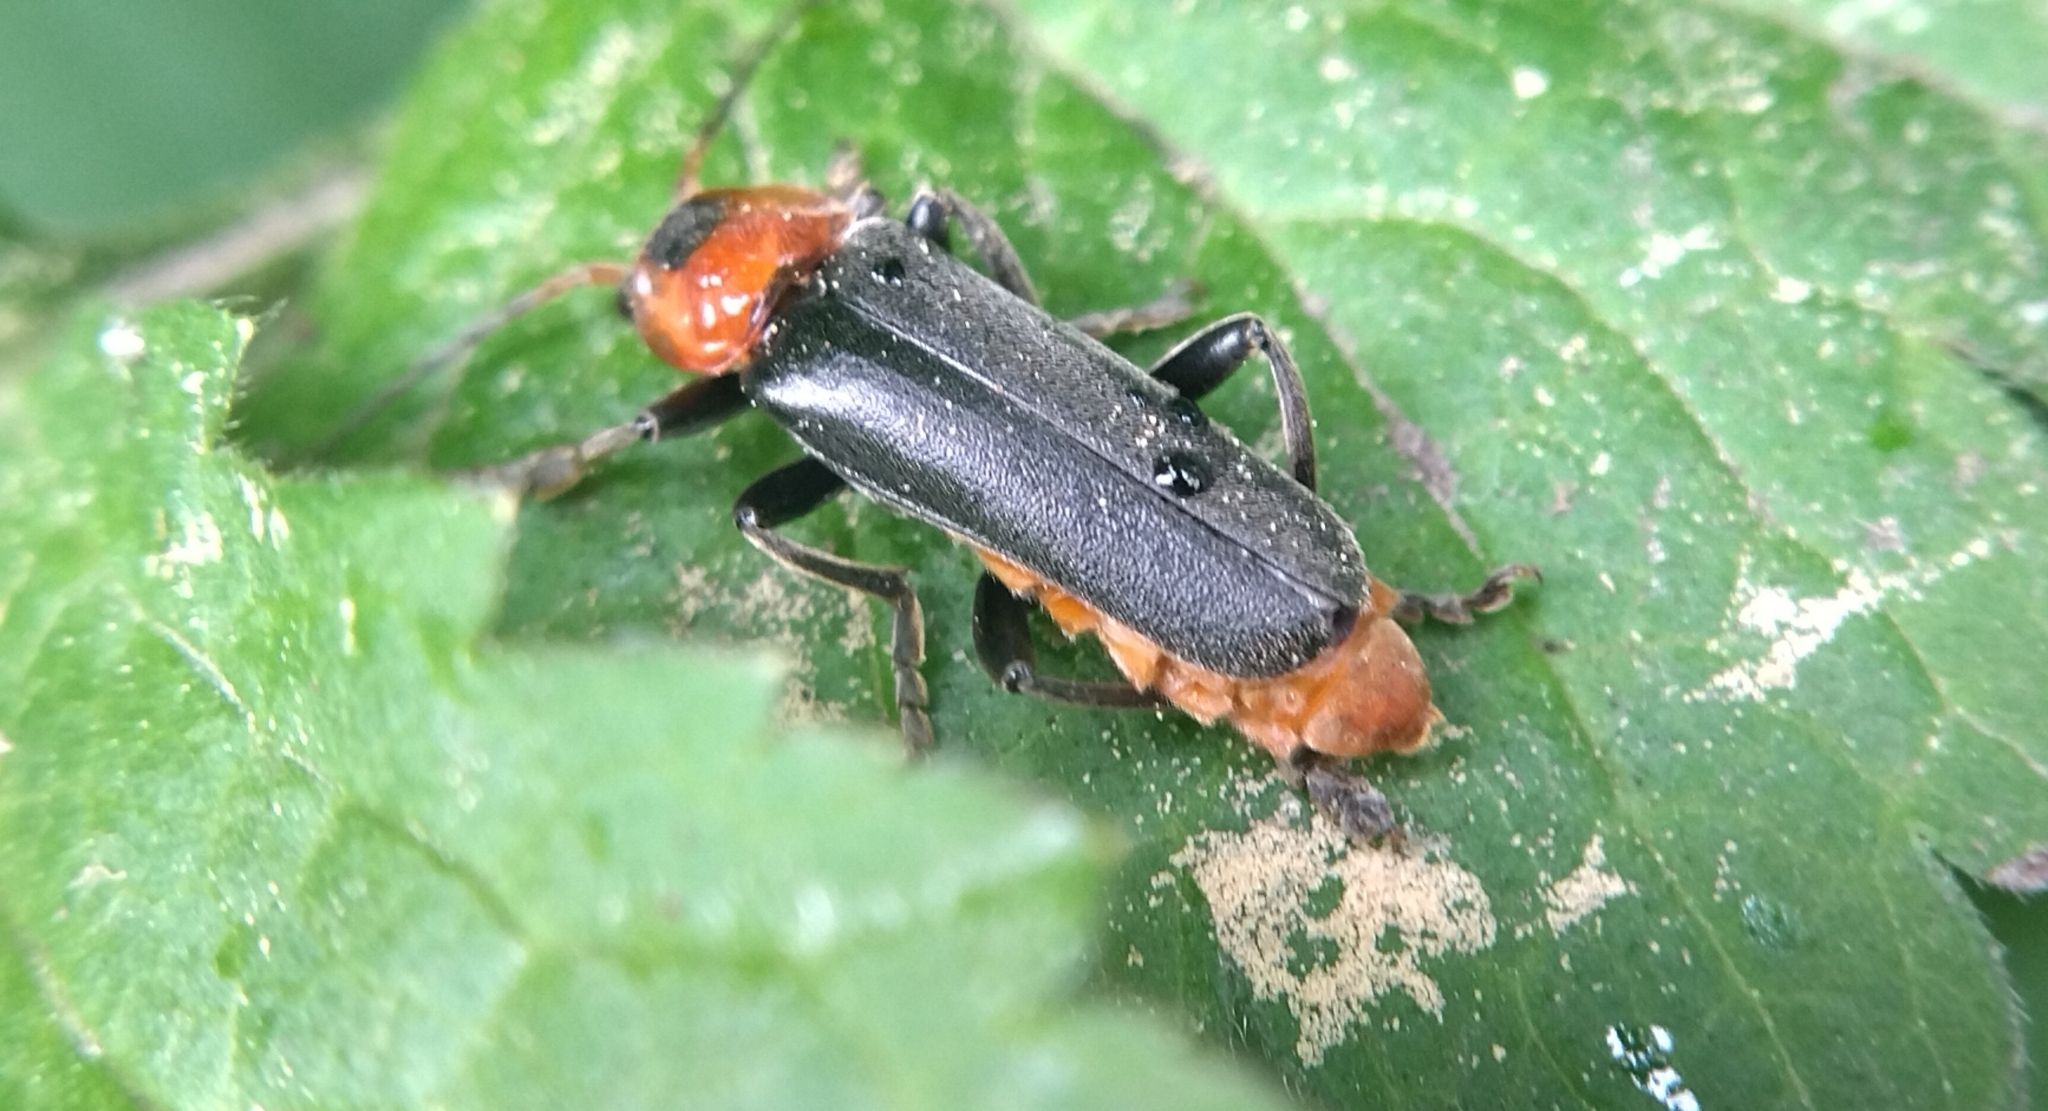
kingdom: Animalia
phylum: Arthropoda
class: Insecta
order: Coleoptera
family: Cantharidae
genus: Cantharis
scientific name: Cantharis fusca
